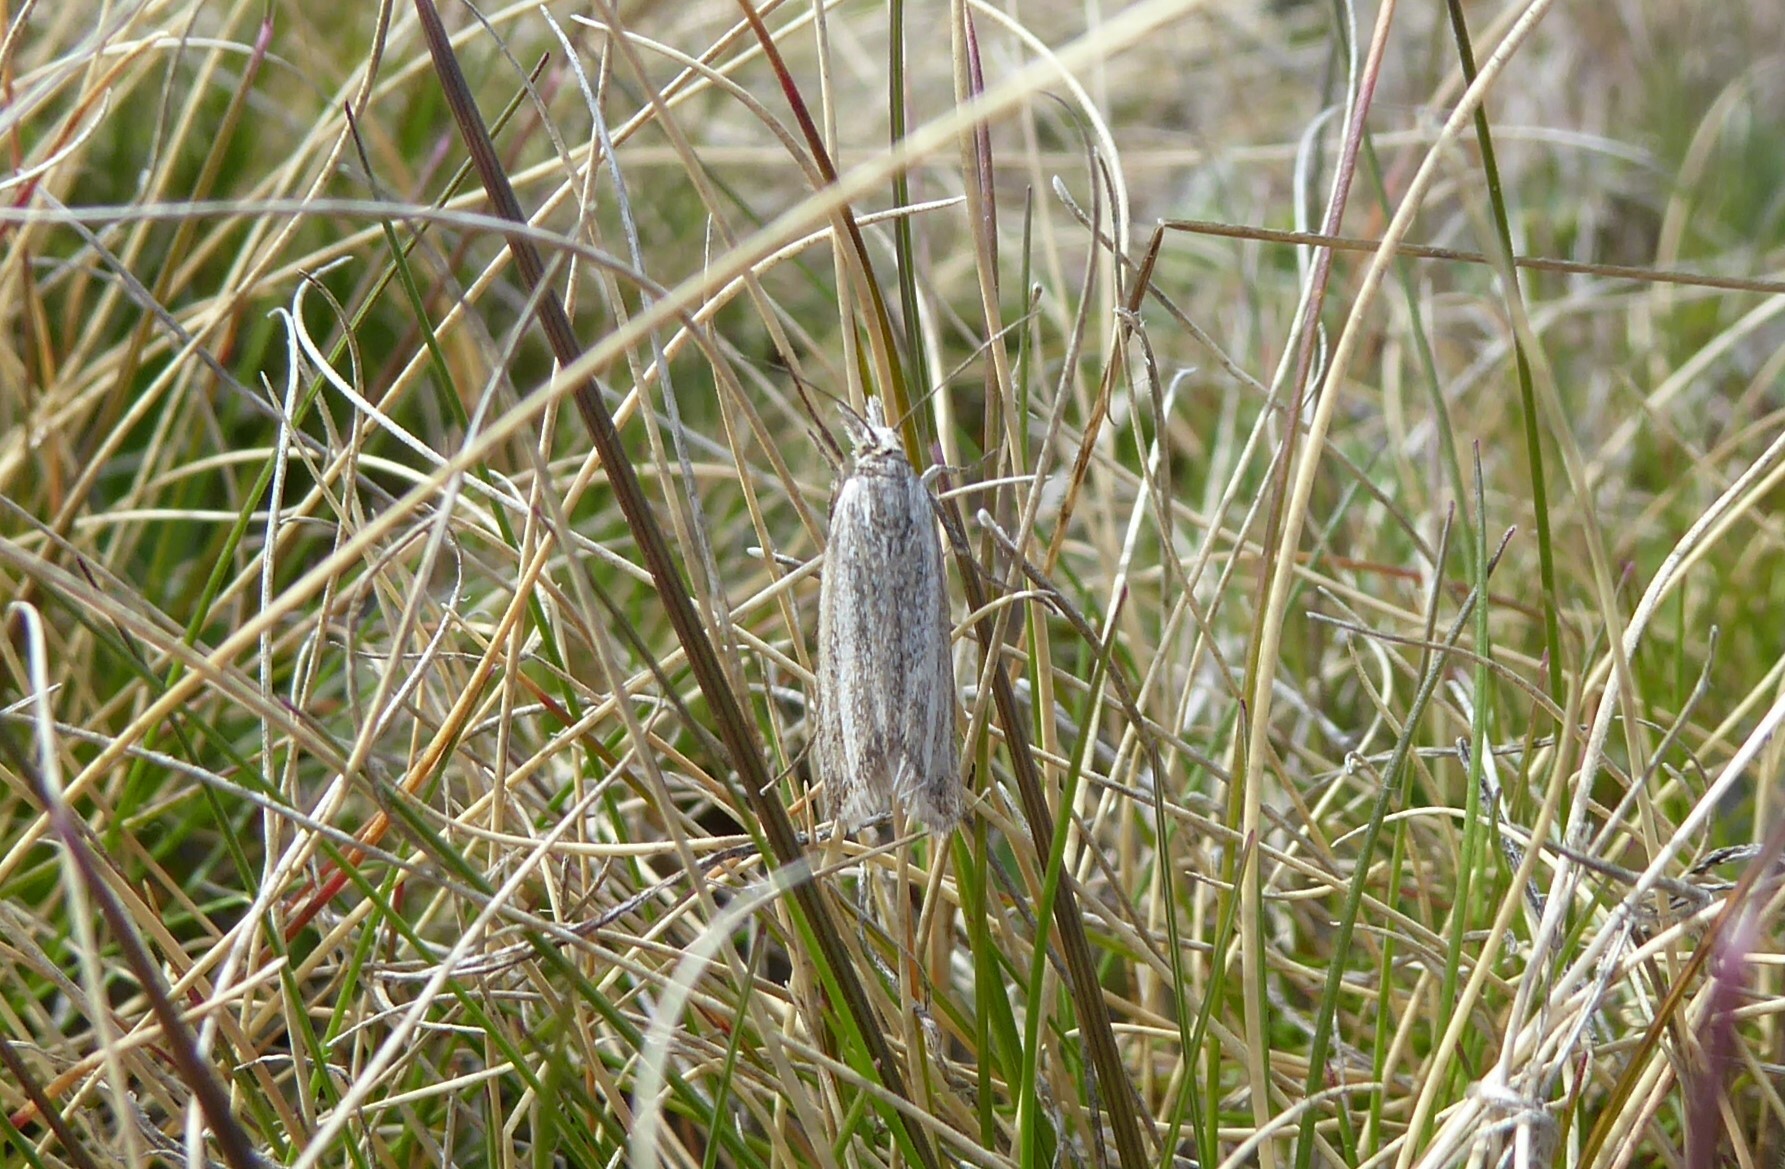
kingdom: Animalia
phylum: Arthropoda
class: Insecta
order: Lepidoptera
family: Crambidae
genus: Orocrambus
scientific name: Orocrambus corruptus
